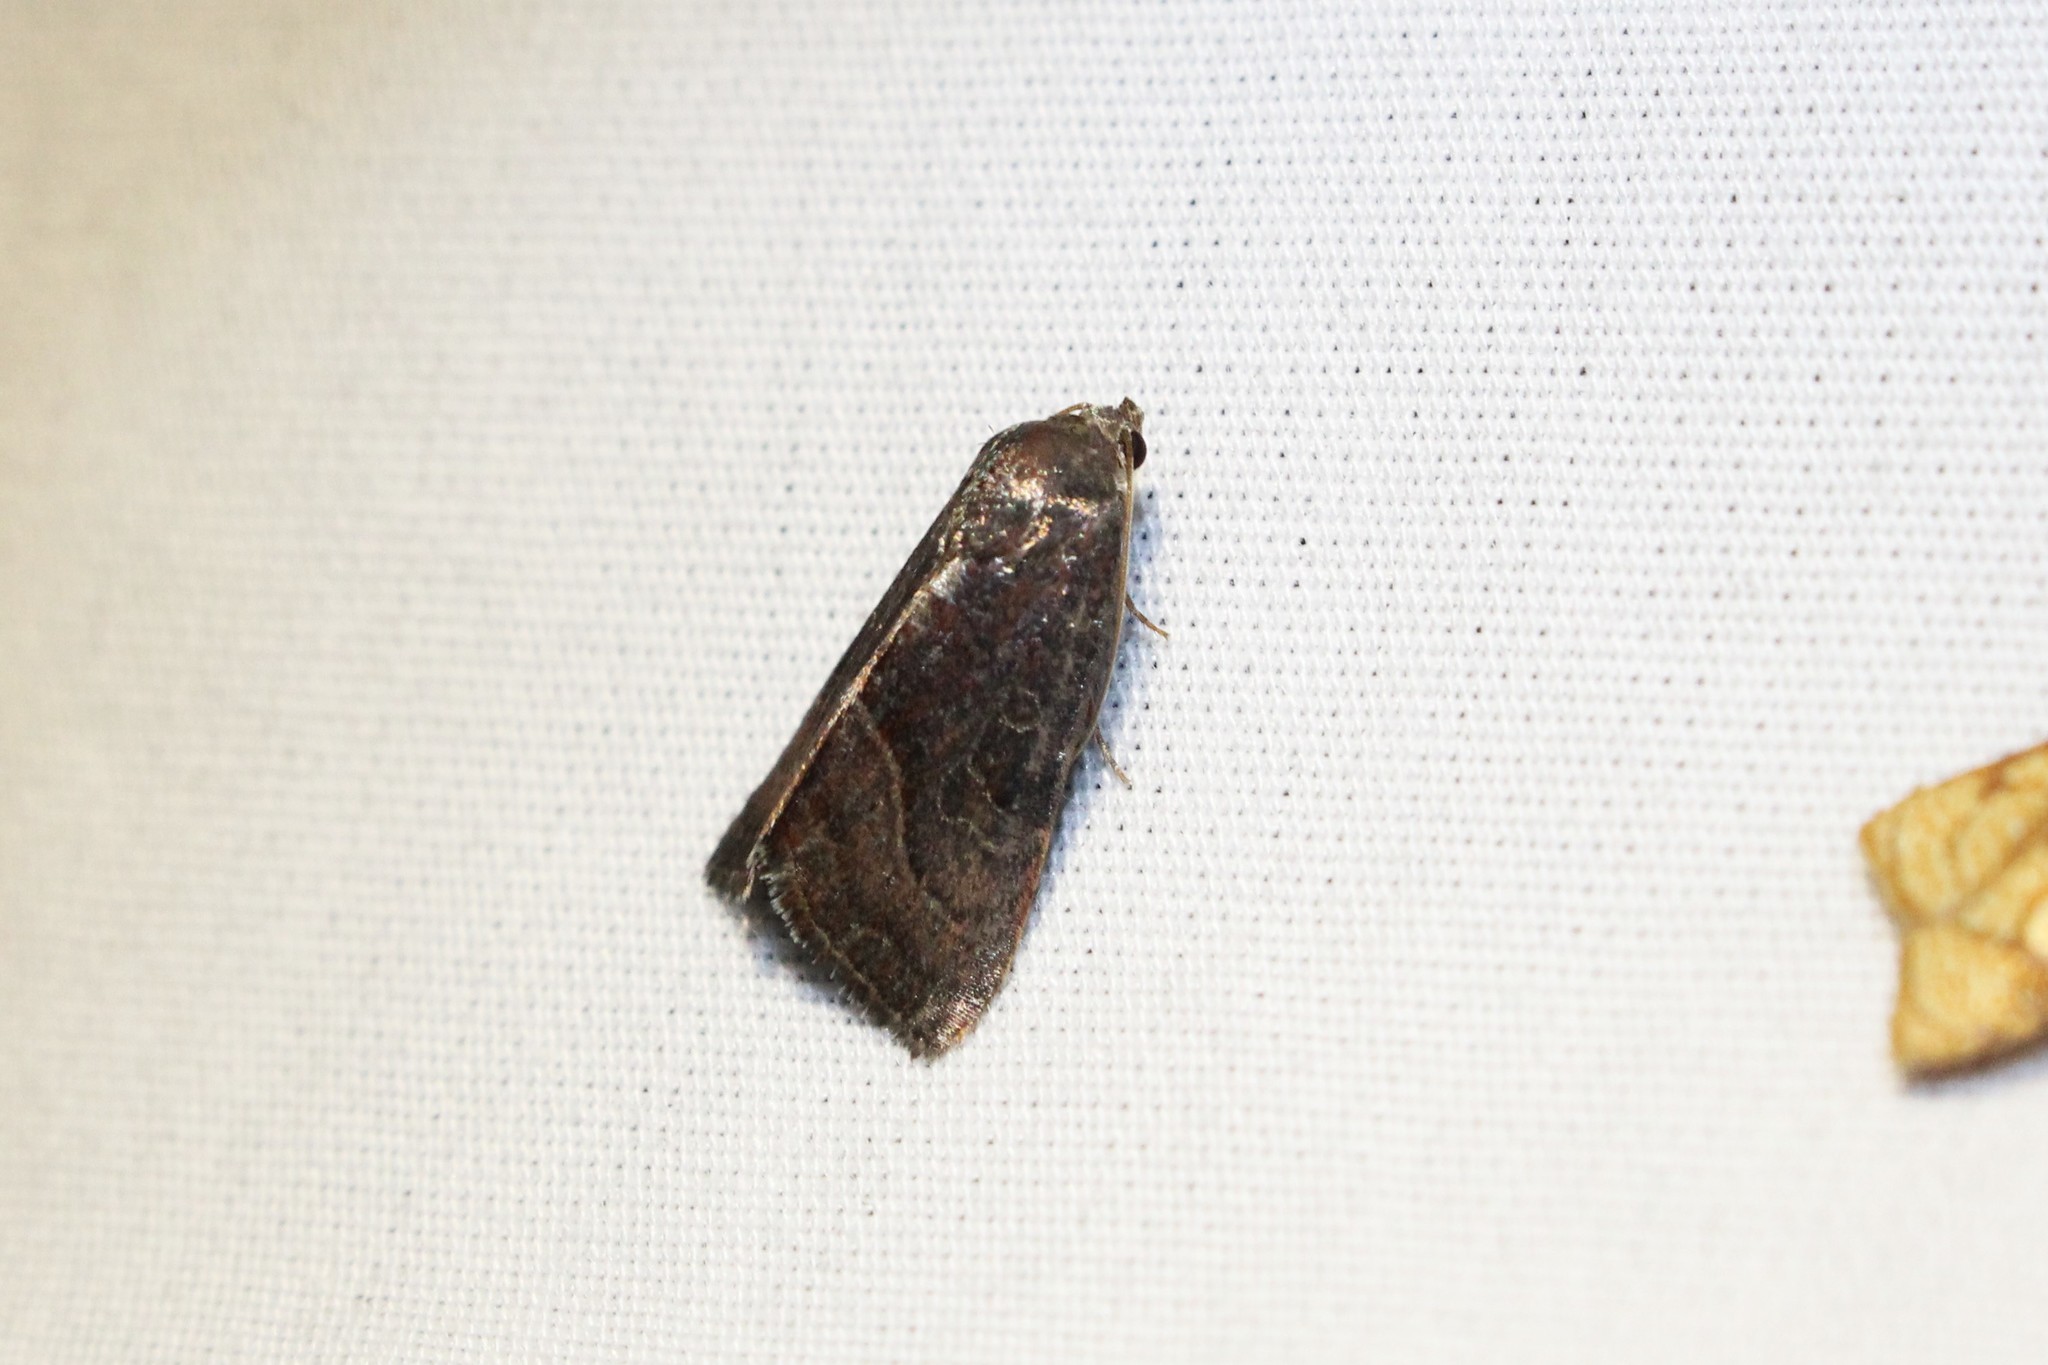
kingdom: Animalia
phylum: Arthropoda
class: Insecta
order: Lepidoptera
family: Noctuidae
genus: Galgula
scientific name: Galgula partita
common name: Wedgeling
